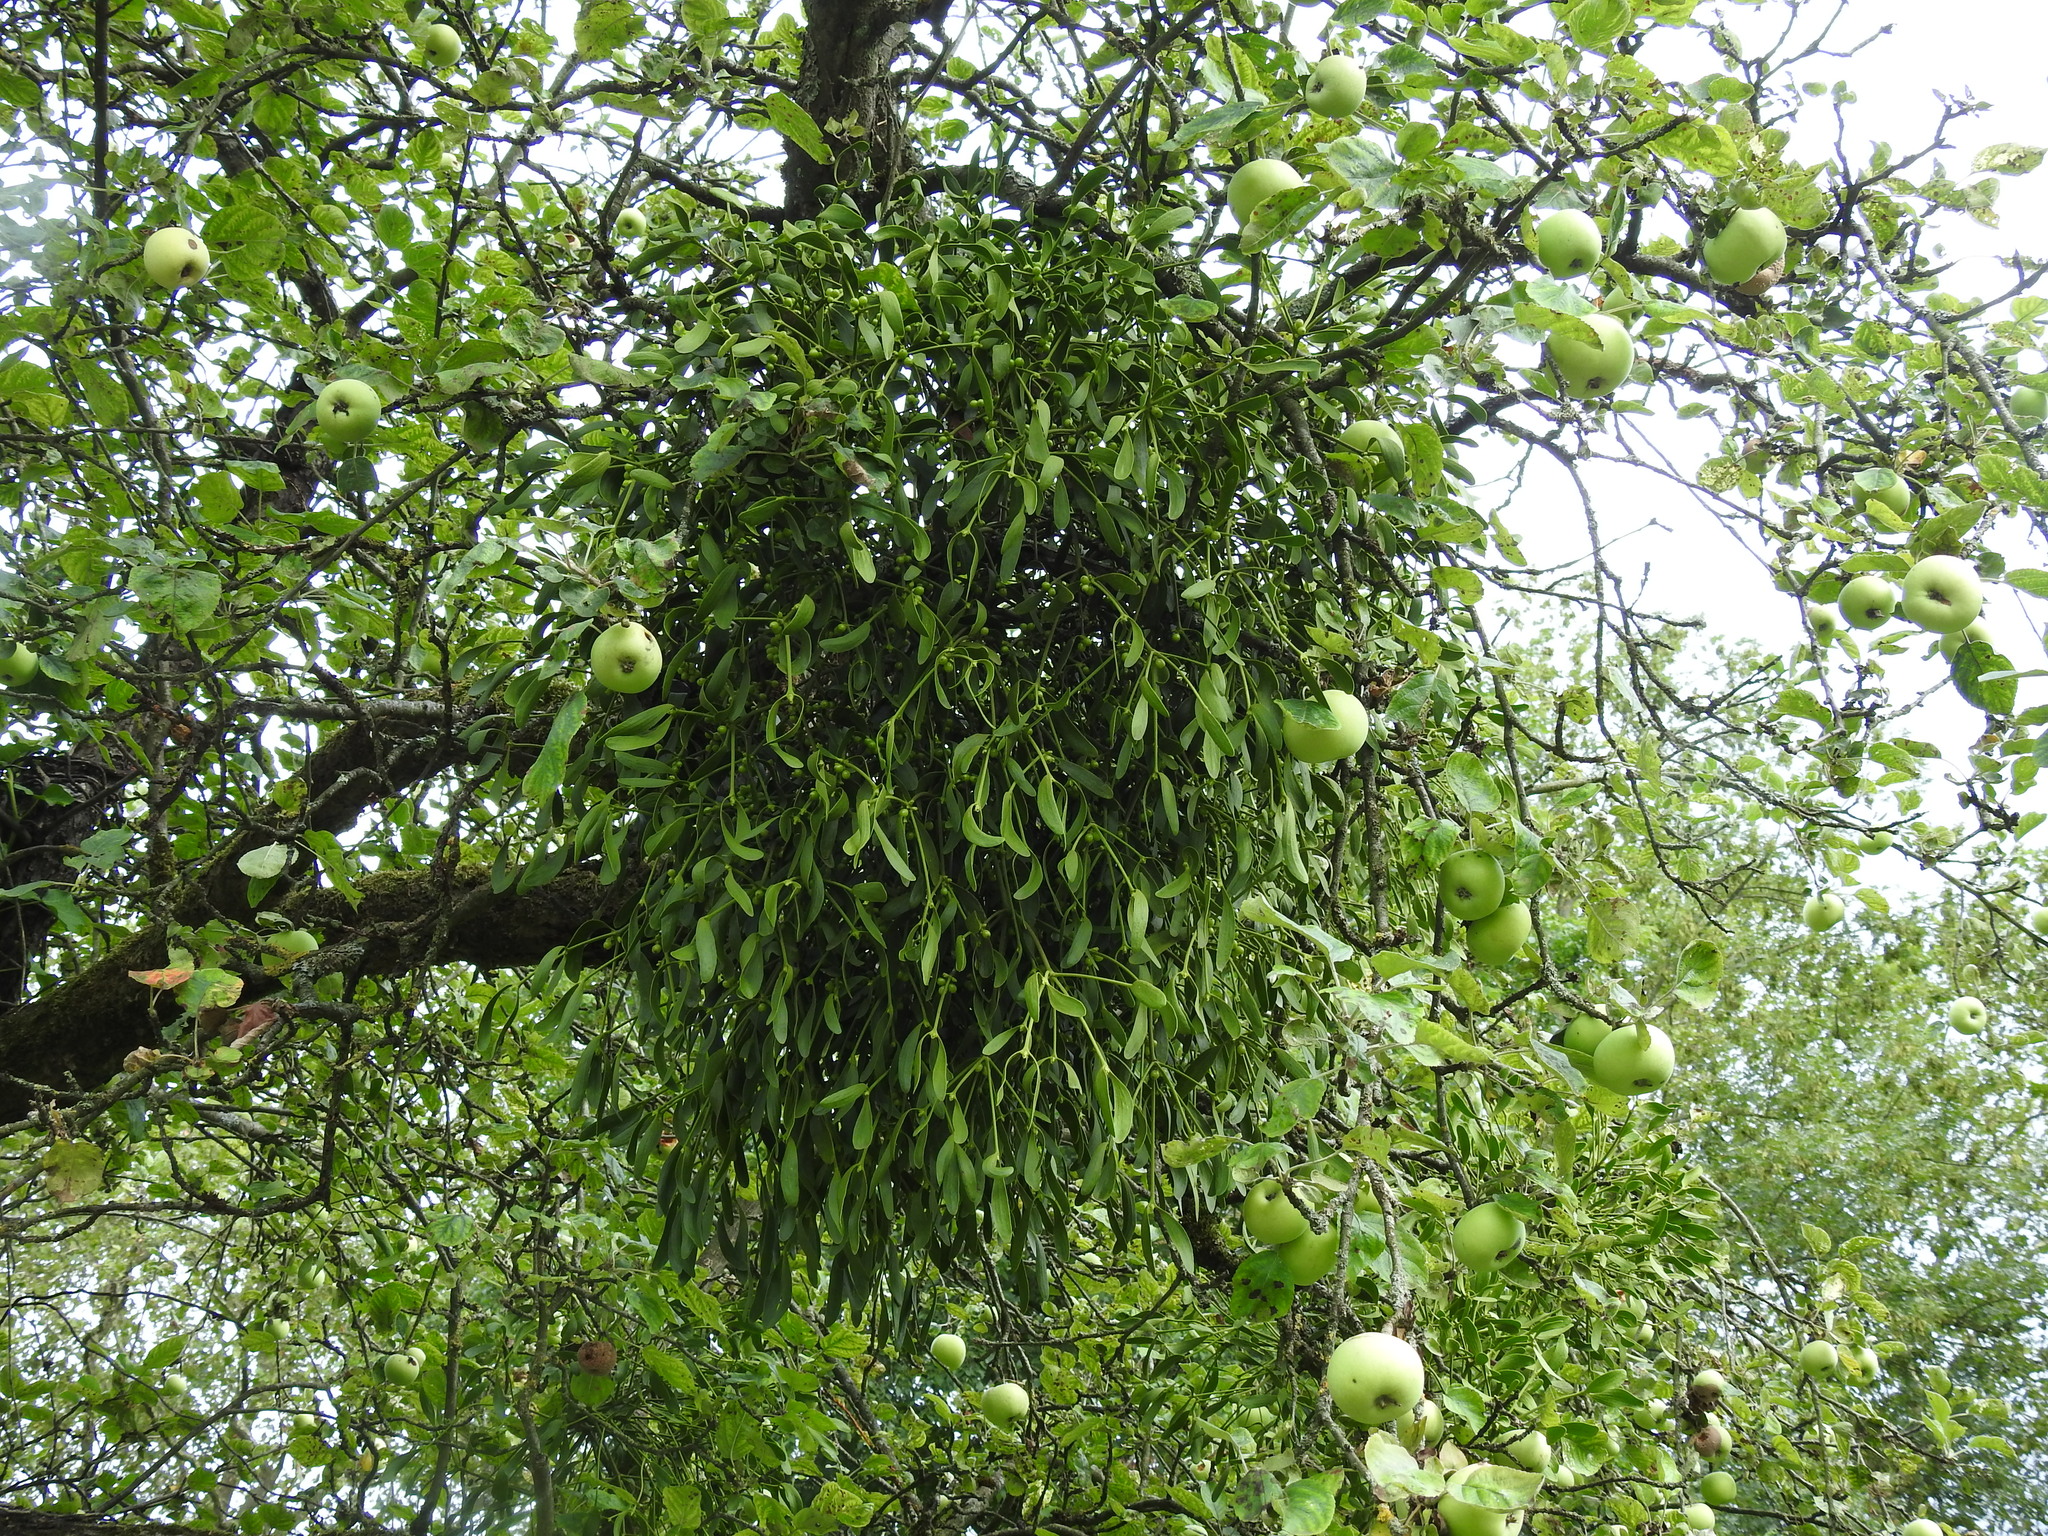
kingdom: Plantae
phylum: Tracheophyta
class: Magnoliopsida
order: Santalales
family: Viscaceae
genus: Viscum
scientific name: Viscum album
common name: Mistletoe
